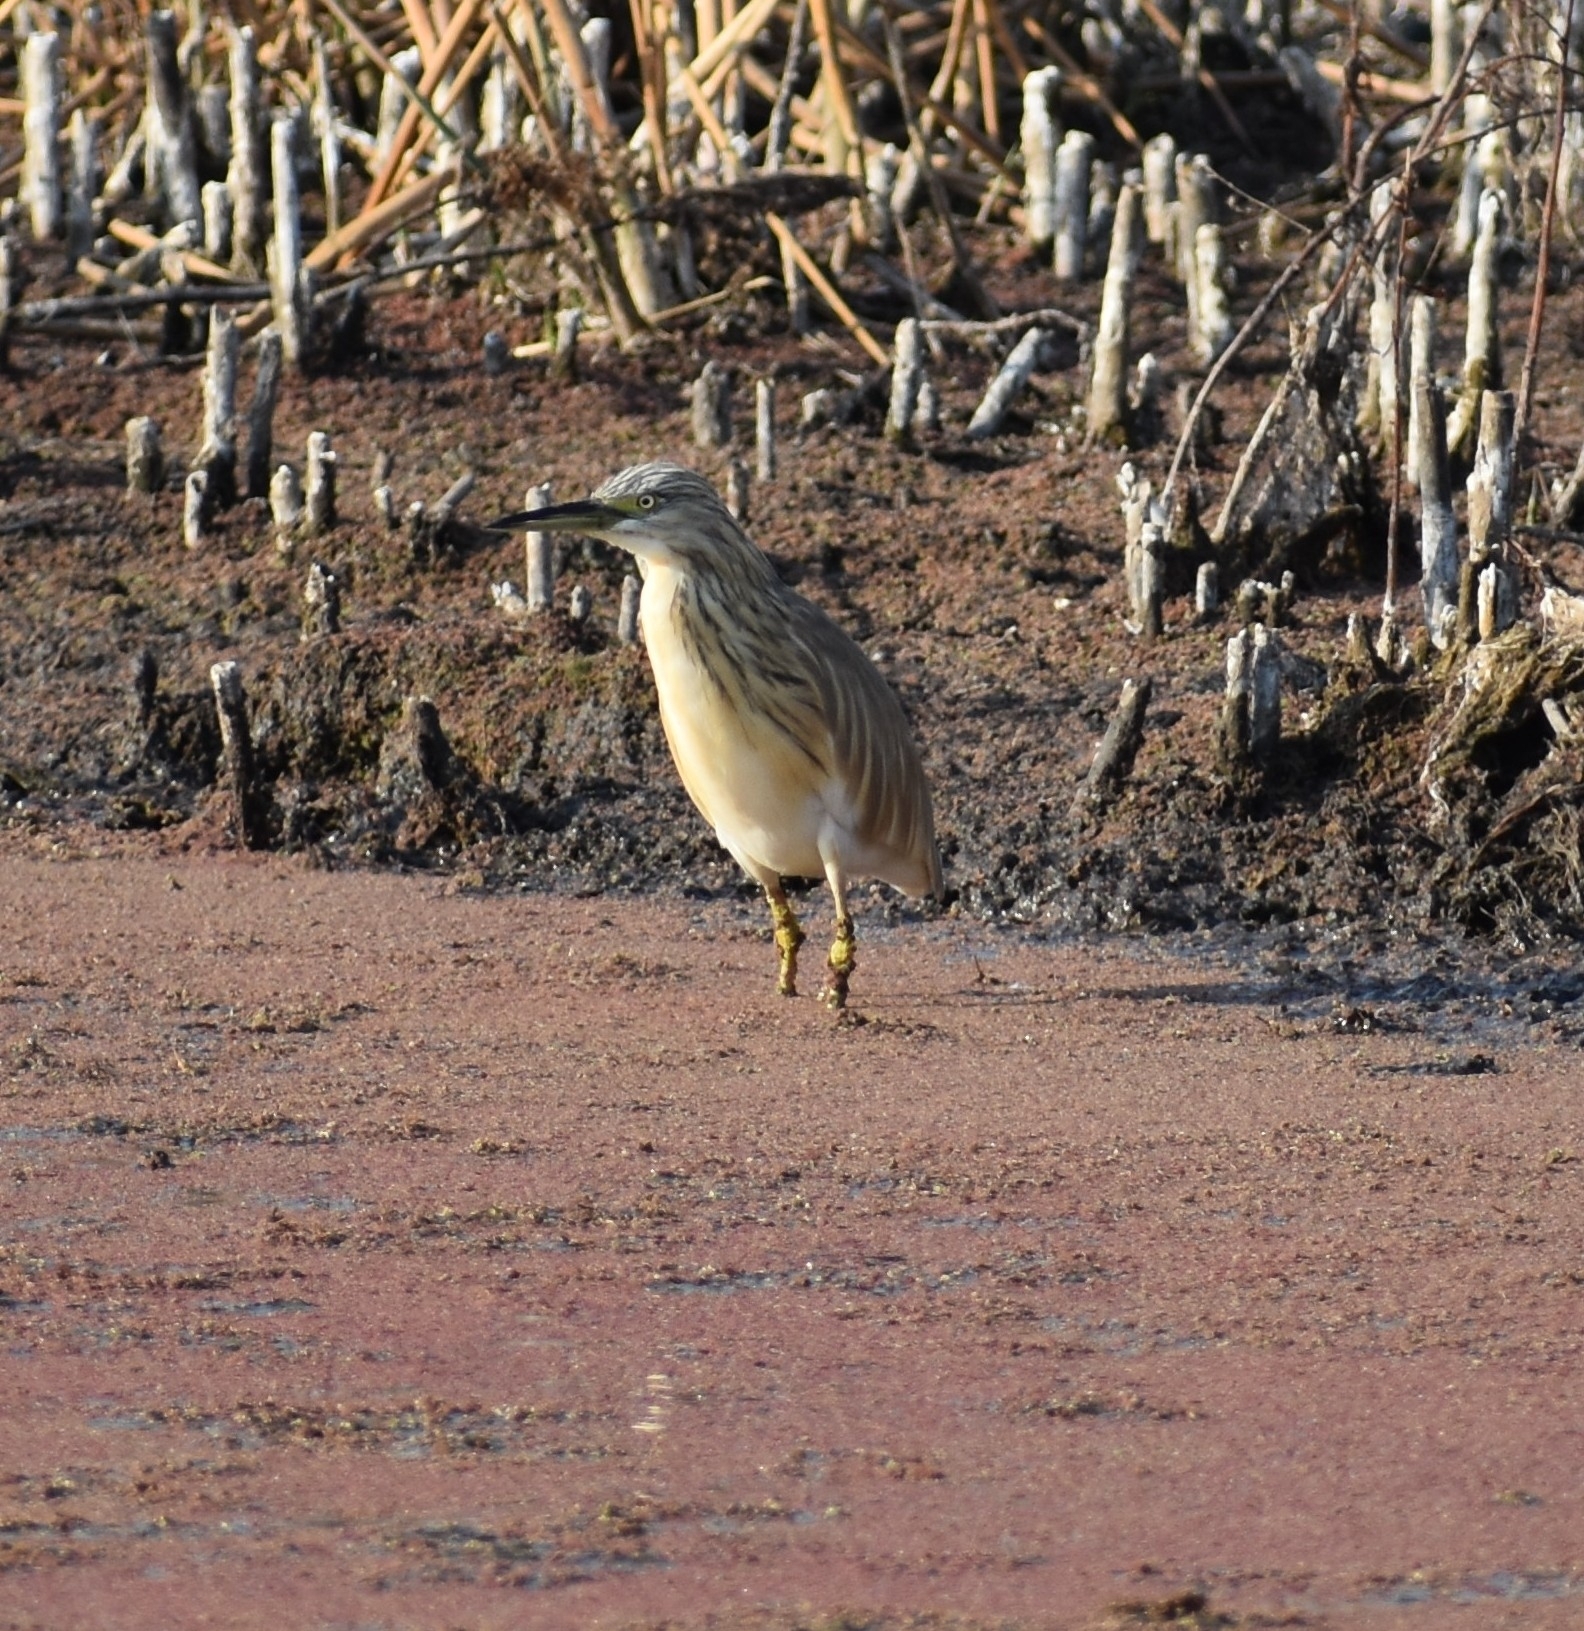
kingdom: Animalia
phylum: Chordata
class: Aves
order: Pelecaniformes
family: Ardeidae
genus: Ardeola
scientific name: Ardeola ralloides
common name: Squacco heron
